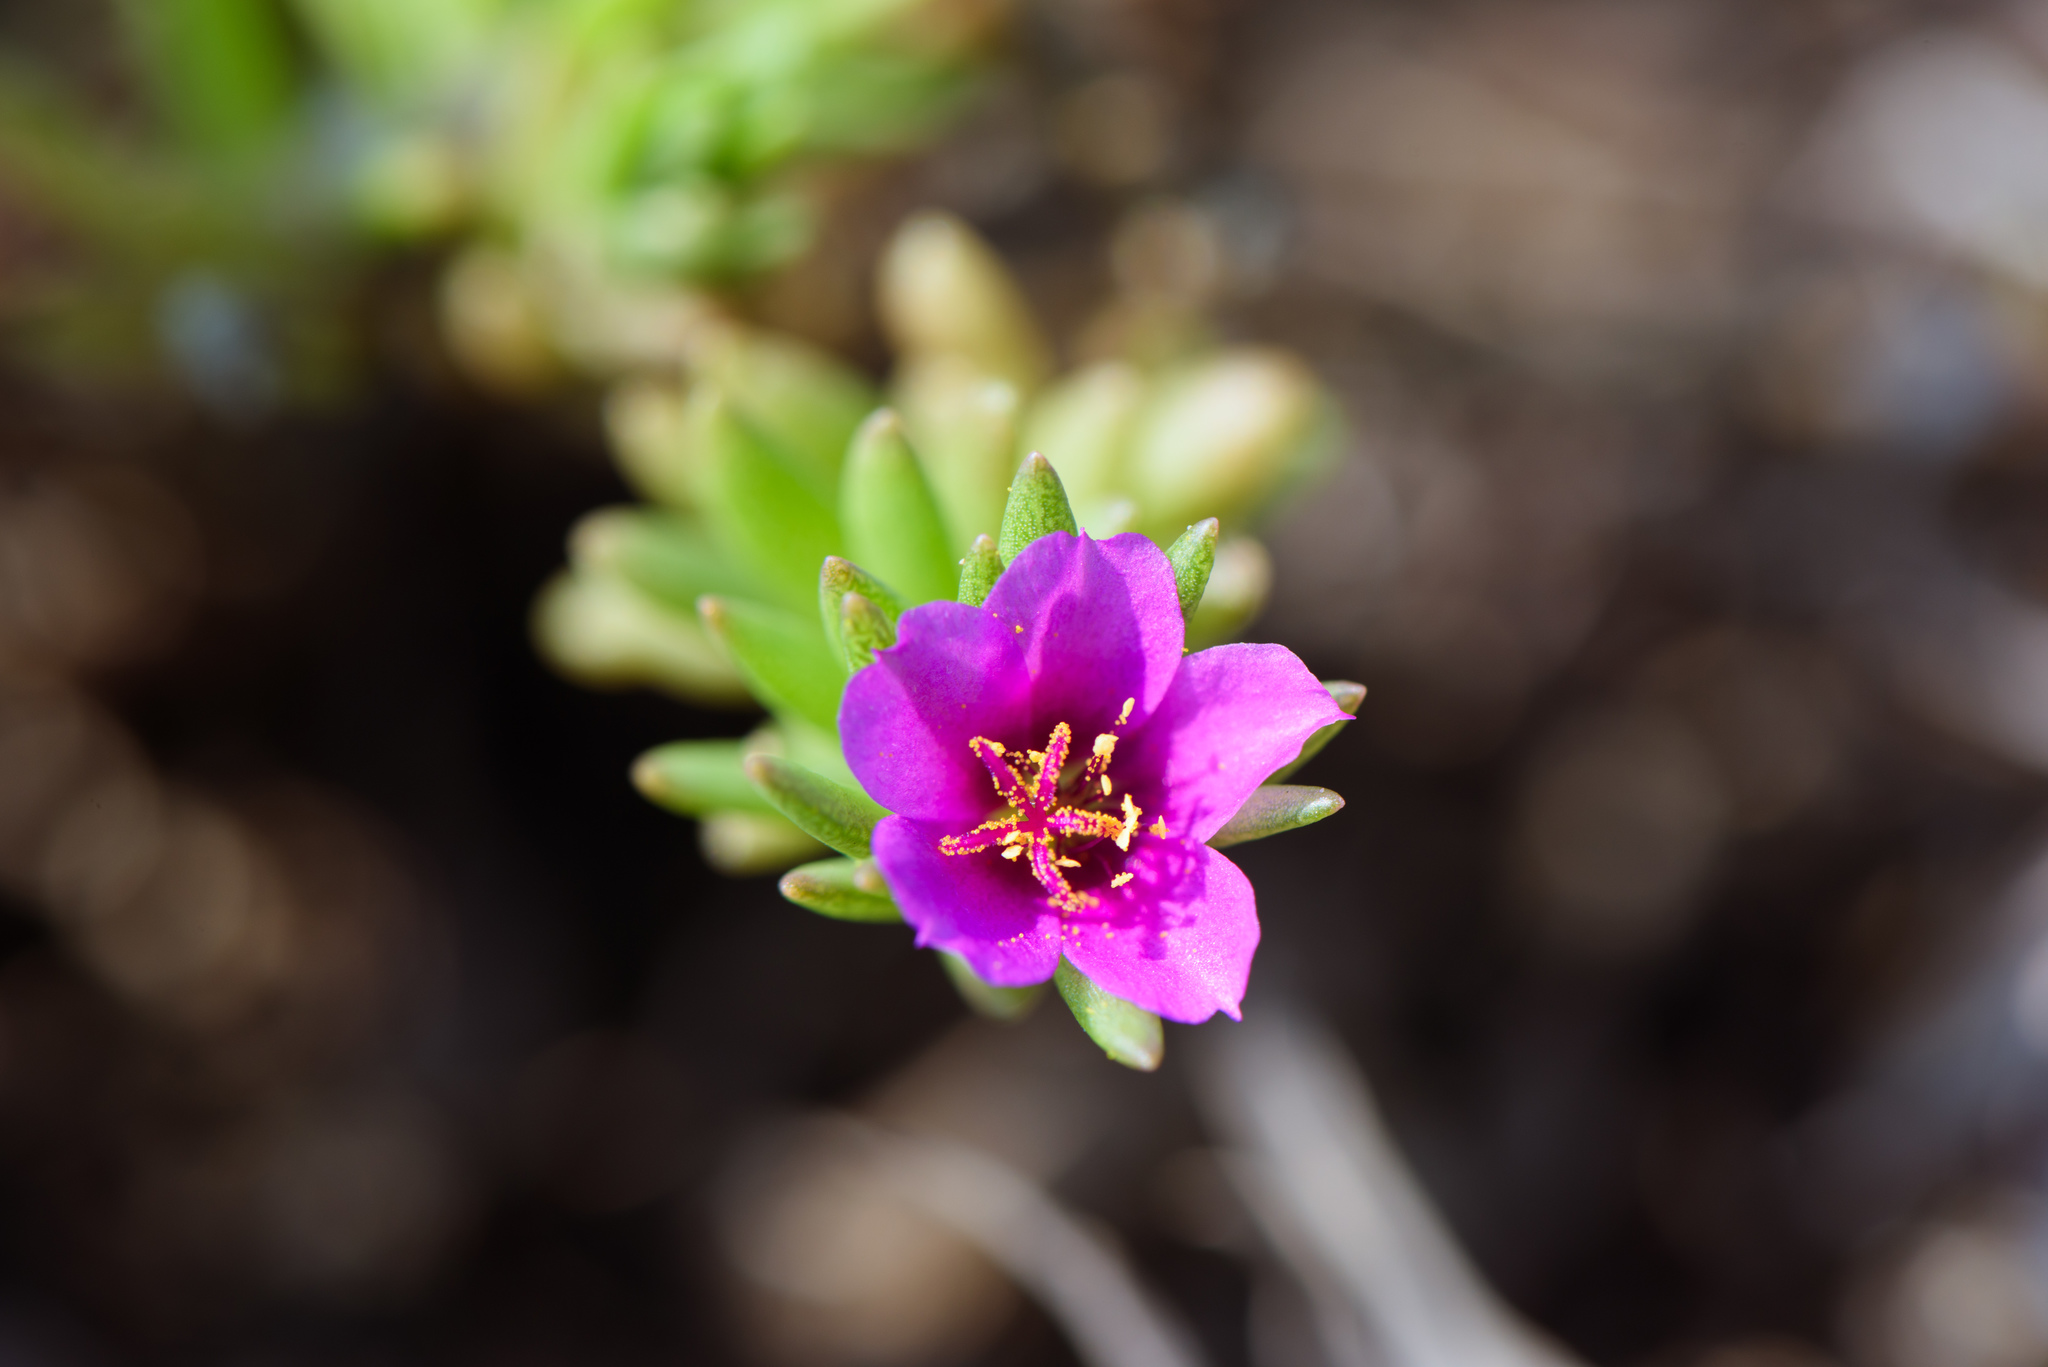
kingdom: Plantae
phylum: Tracheophyta
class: Magnoliopsida
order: Caryophyllales
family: Portulacaceae
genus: Portulaca
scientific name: Portulaca pilosa
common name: Kiss me quick
